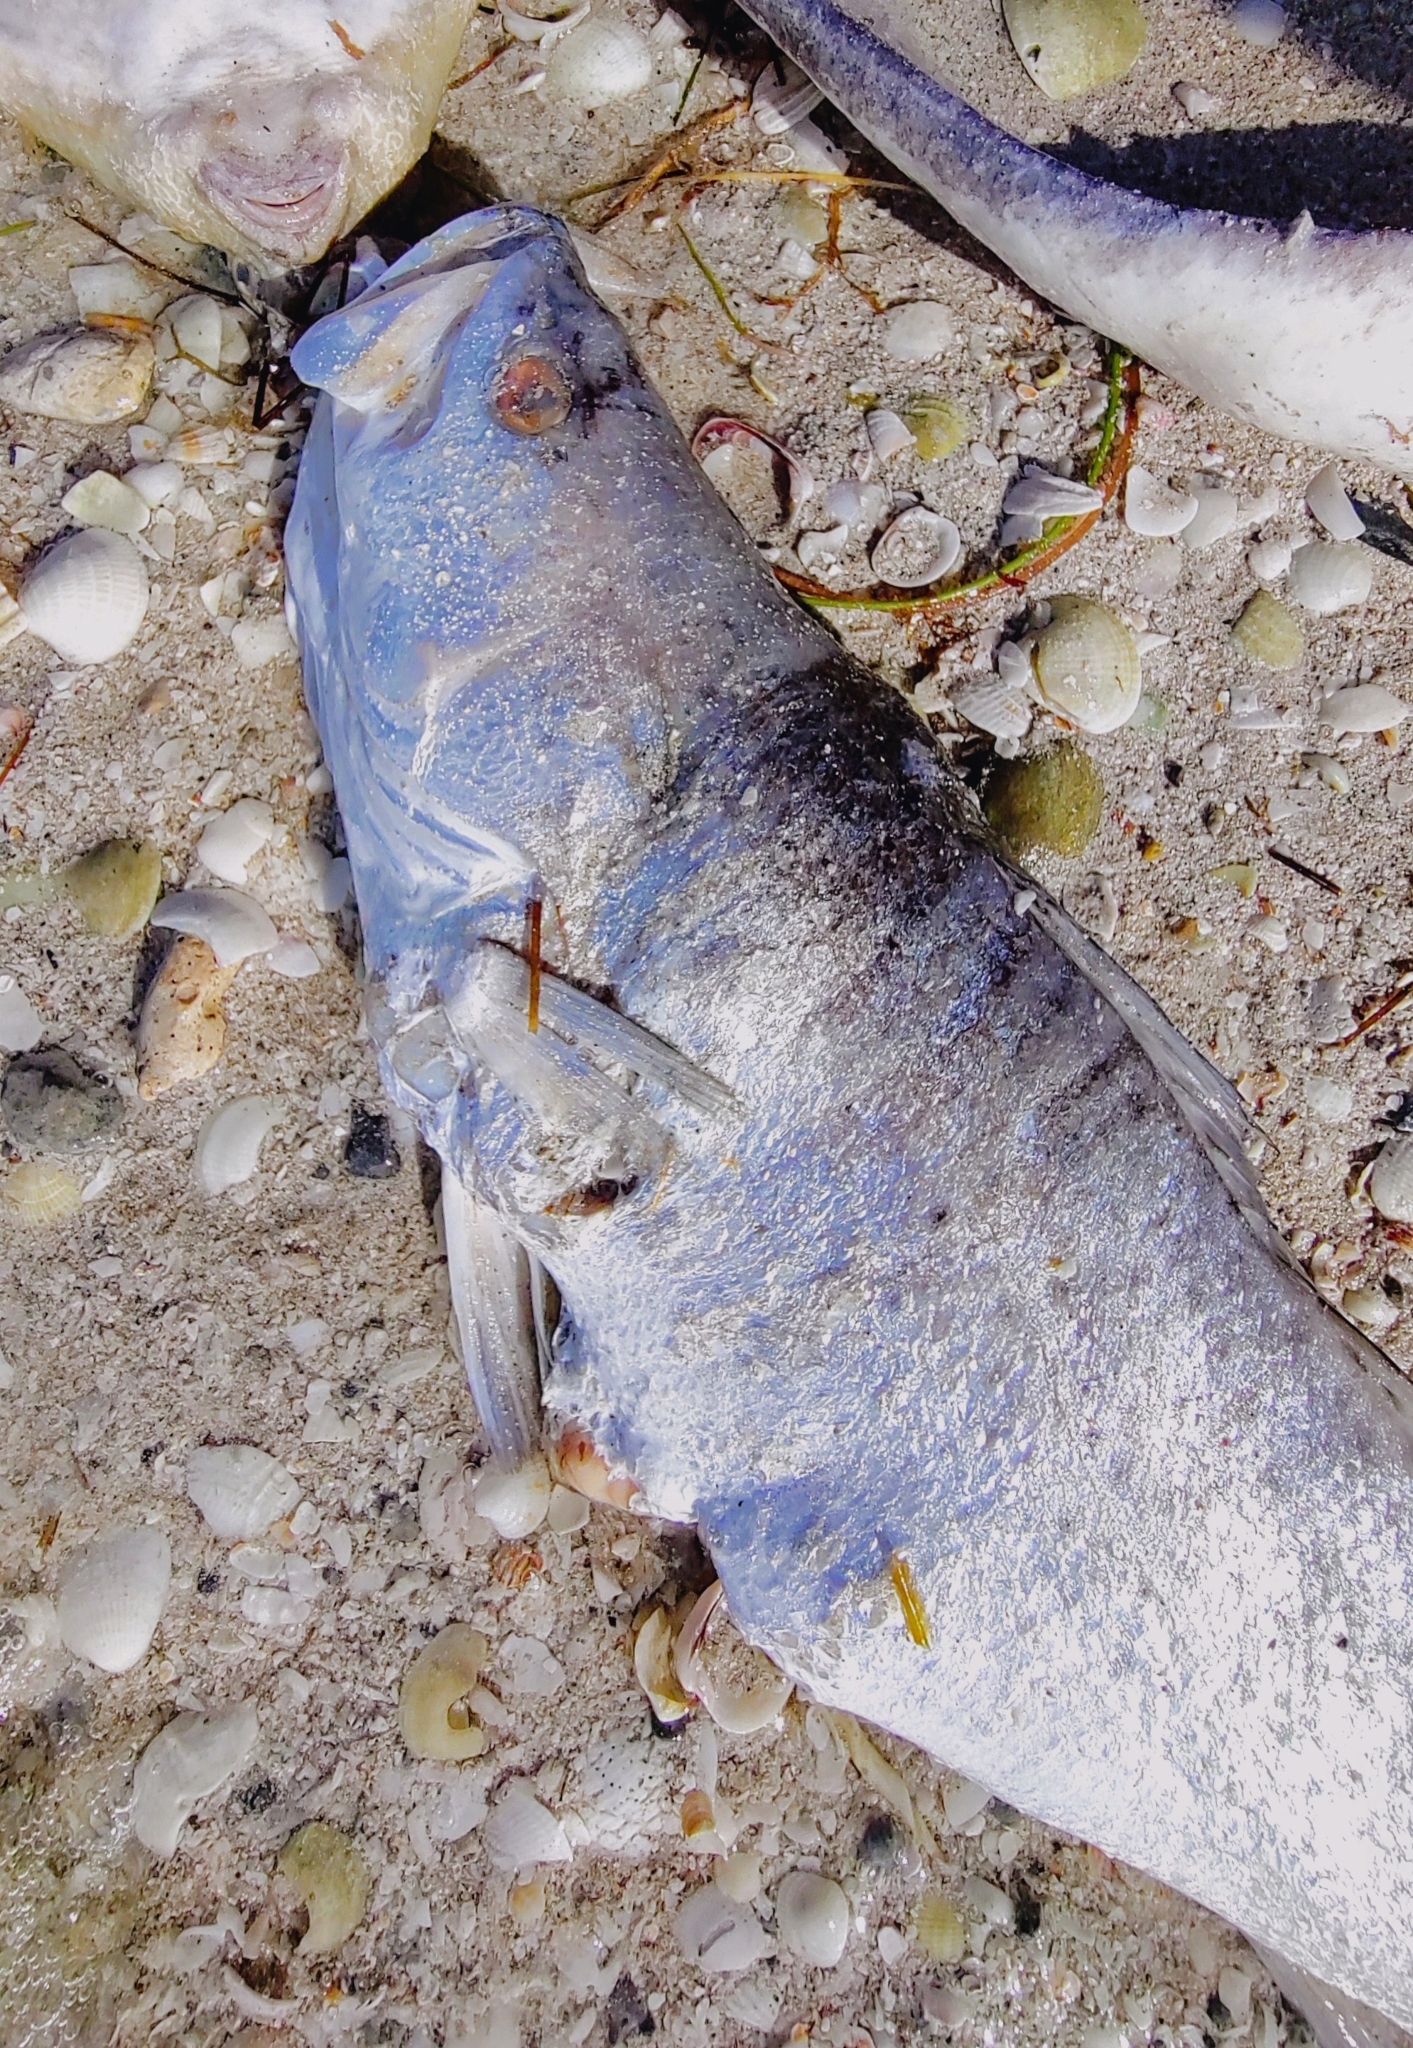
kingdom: Animalia
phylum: Chordata
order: Perciformes
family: Sciaenidae
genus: Cynoscion
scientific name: Cynoscion nebulosus
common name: Spotted seatrout
